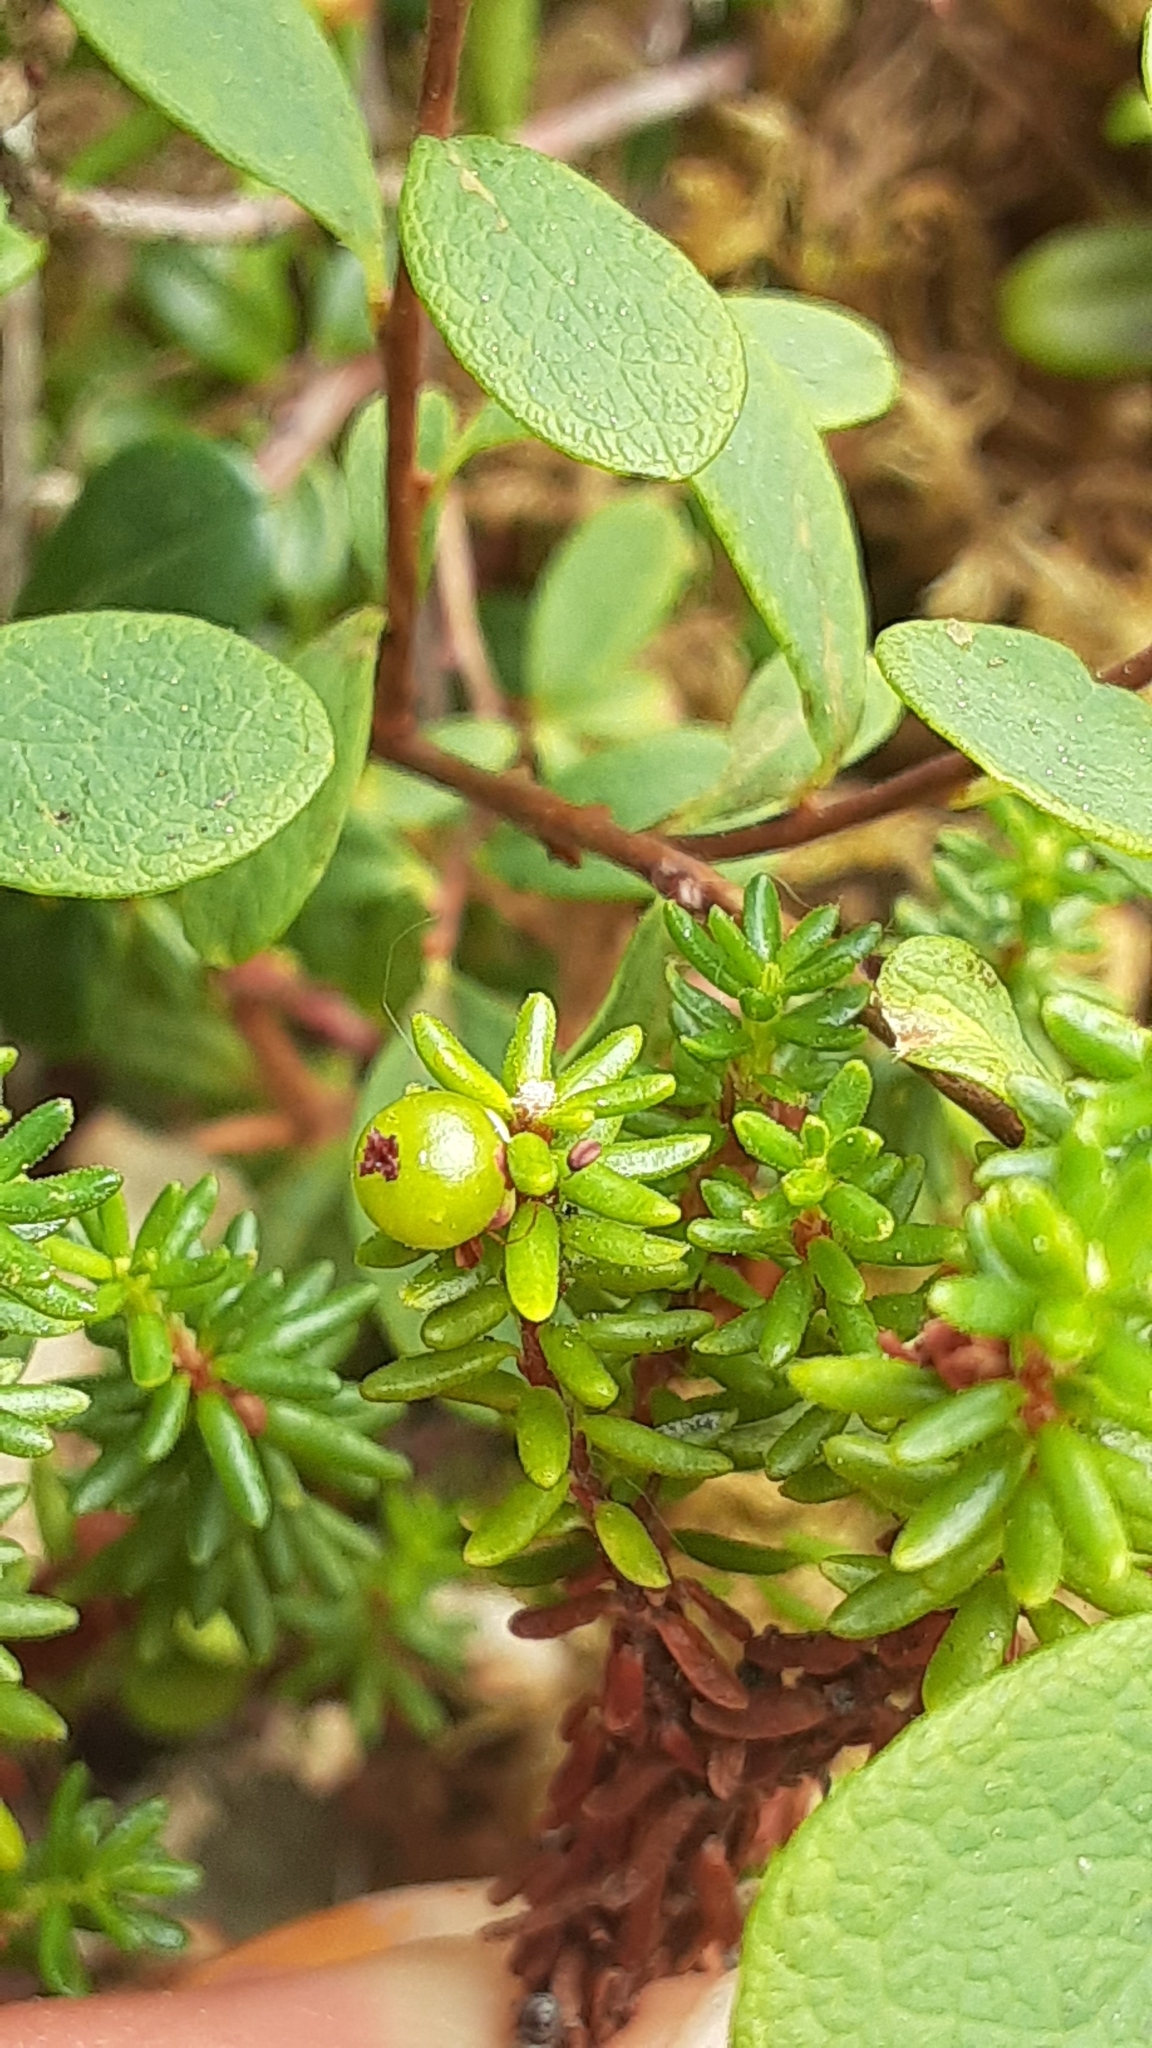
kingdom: Plantae
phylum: Tracheophyta
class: Magnoliopsida
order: Ericales
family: Ericaceae
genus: Empetrum
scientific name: Empetrum nigrum
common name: Black crowberry
